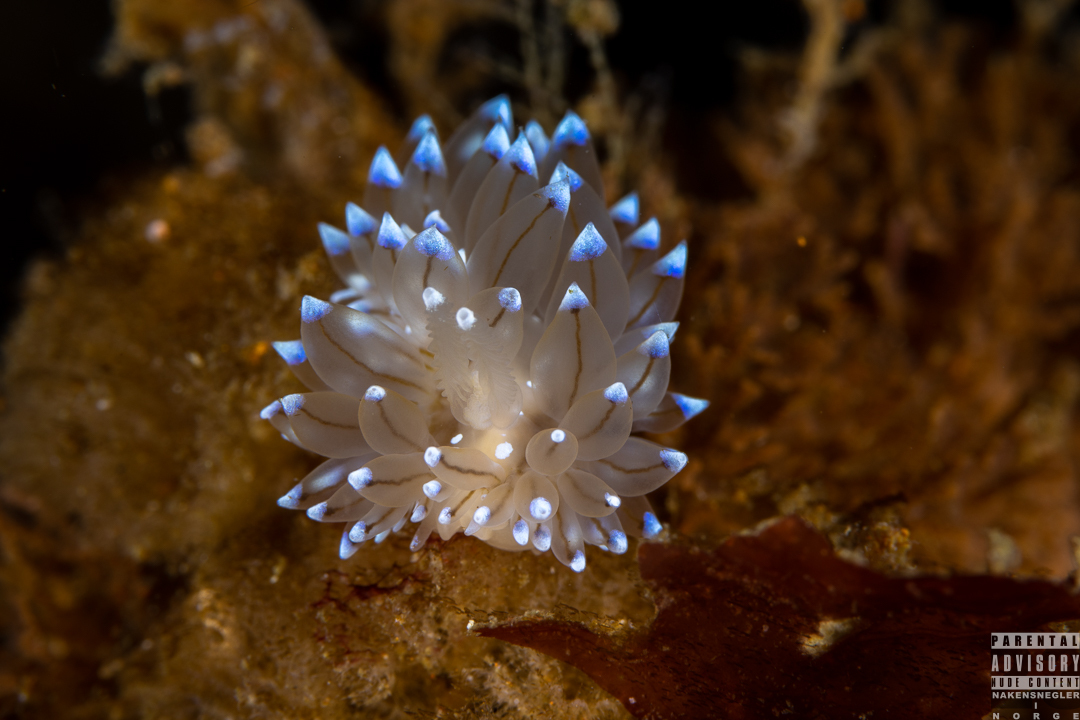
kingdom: Animalia
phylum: Mollusca
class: Gastropoda
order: Nudibranchia
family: Janolidae
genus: Antiopella
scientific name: Antiopella cristata
